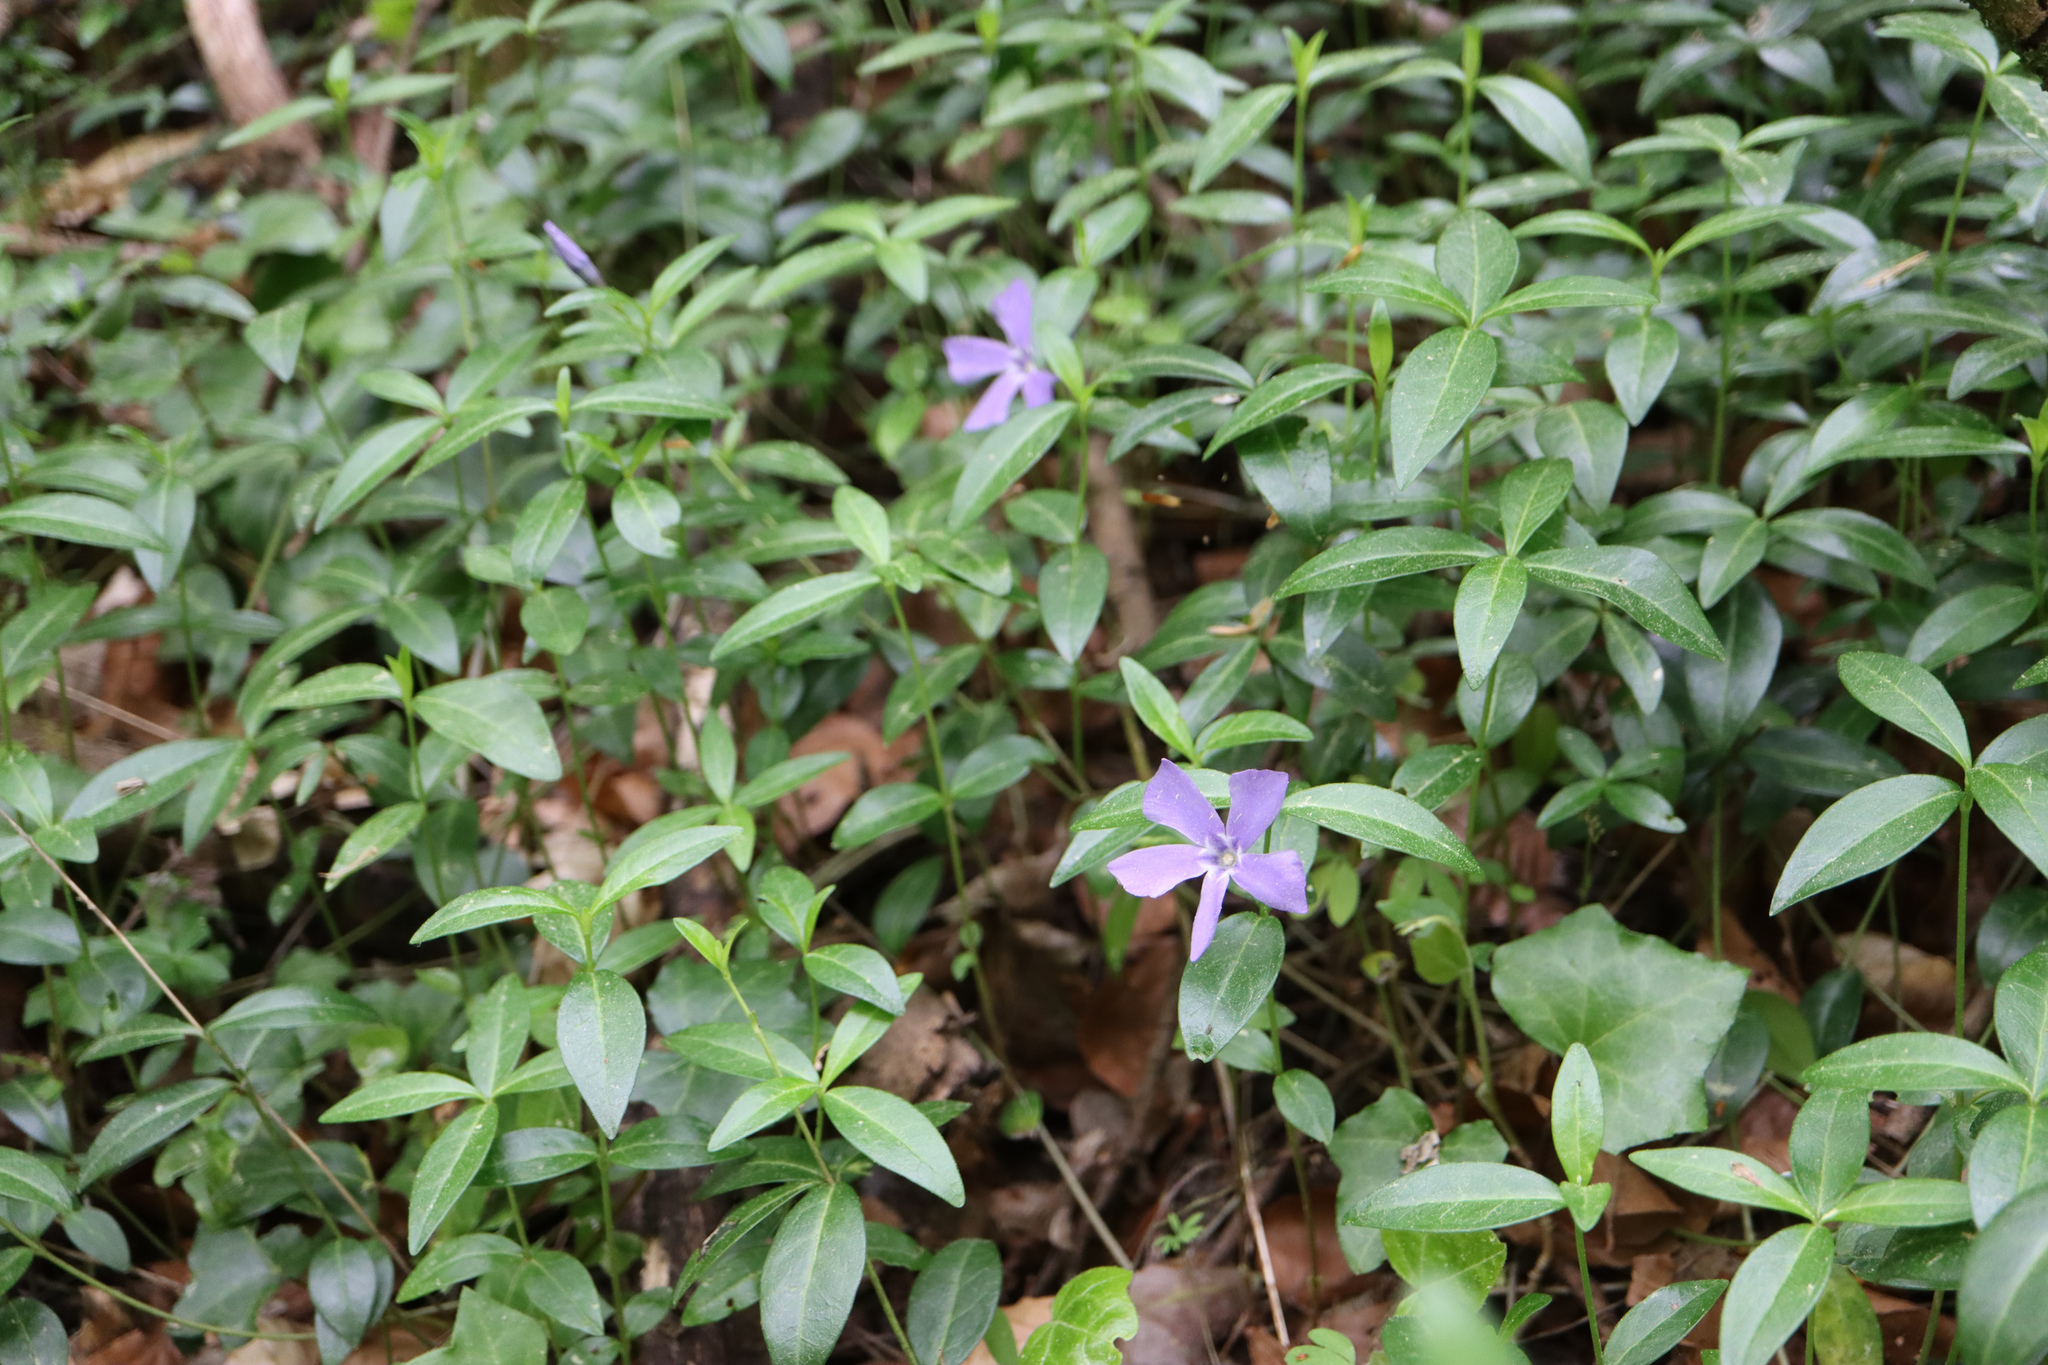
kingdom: Plantae
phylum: Tracheophyta
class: Magnoliopsida
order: Gentianales
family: Apocynaceae
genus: Vinca
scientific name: Vinca minor
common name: Lesser periwinkle
